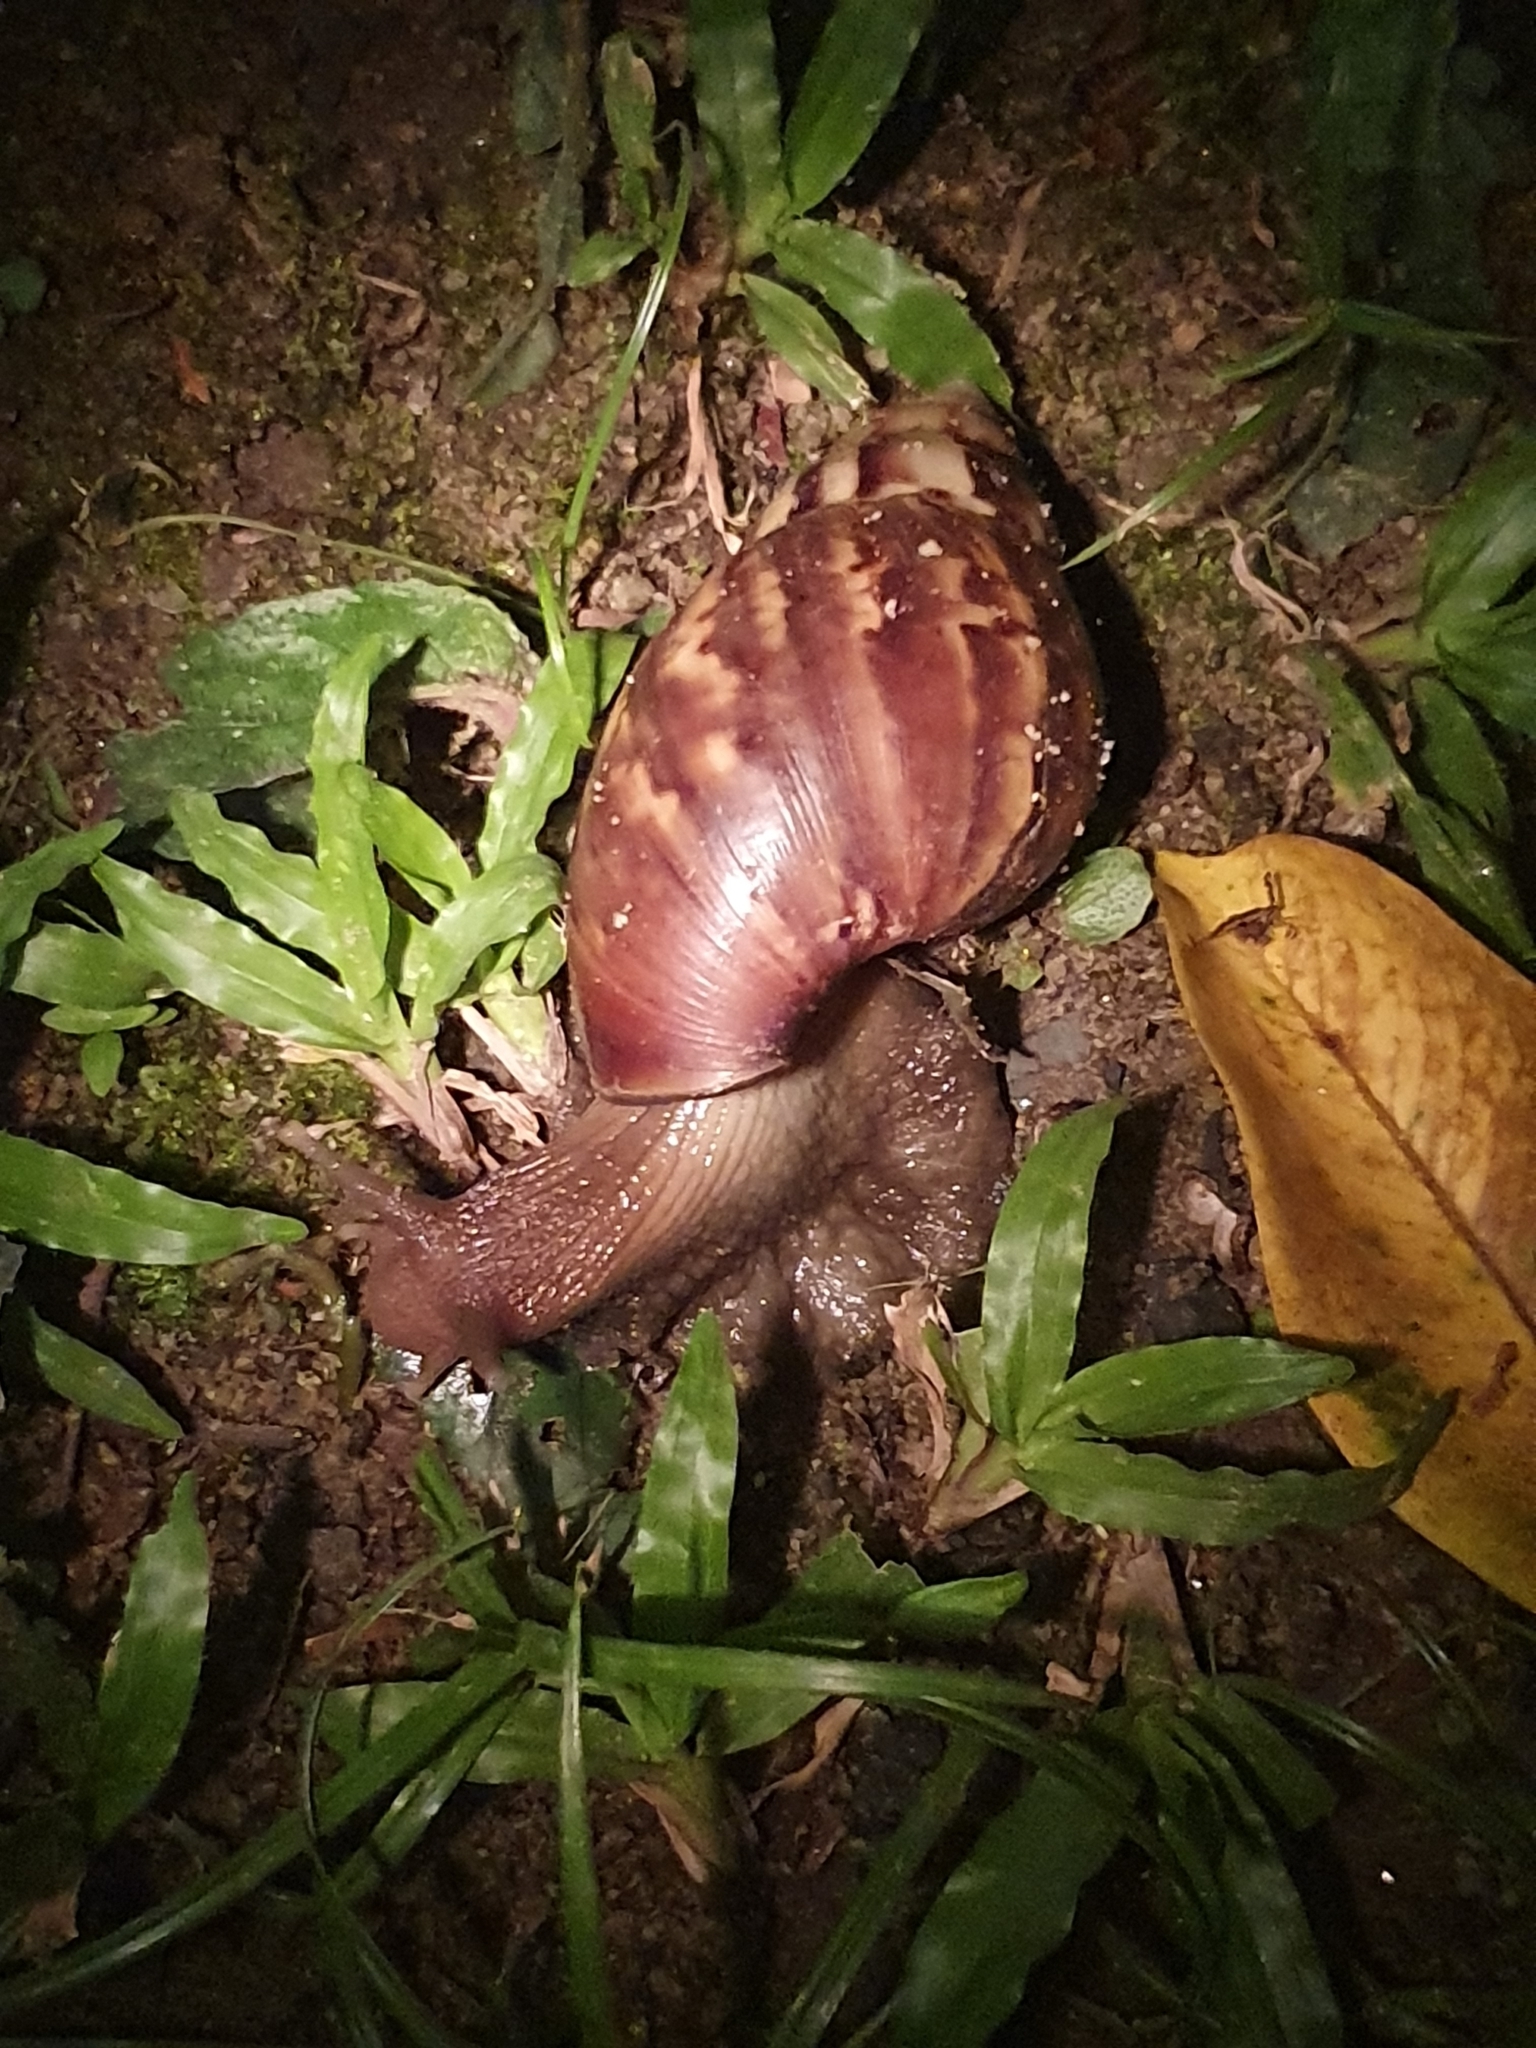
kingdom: Animalia
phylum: Mollusca
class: Gastropoda
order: Stylommatophora
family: Achatinidae
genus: Lissachatina
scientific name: Lissachatina fulica
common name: Giant african snail
